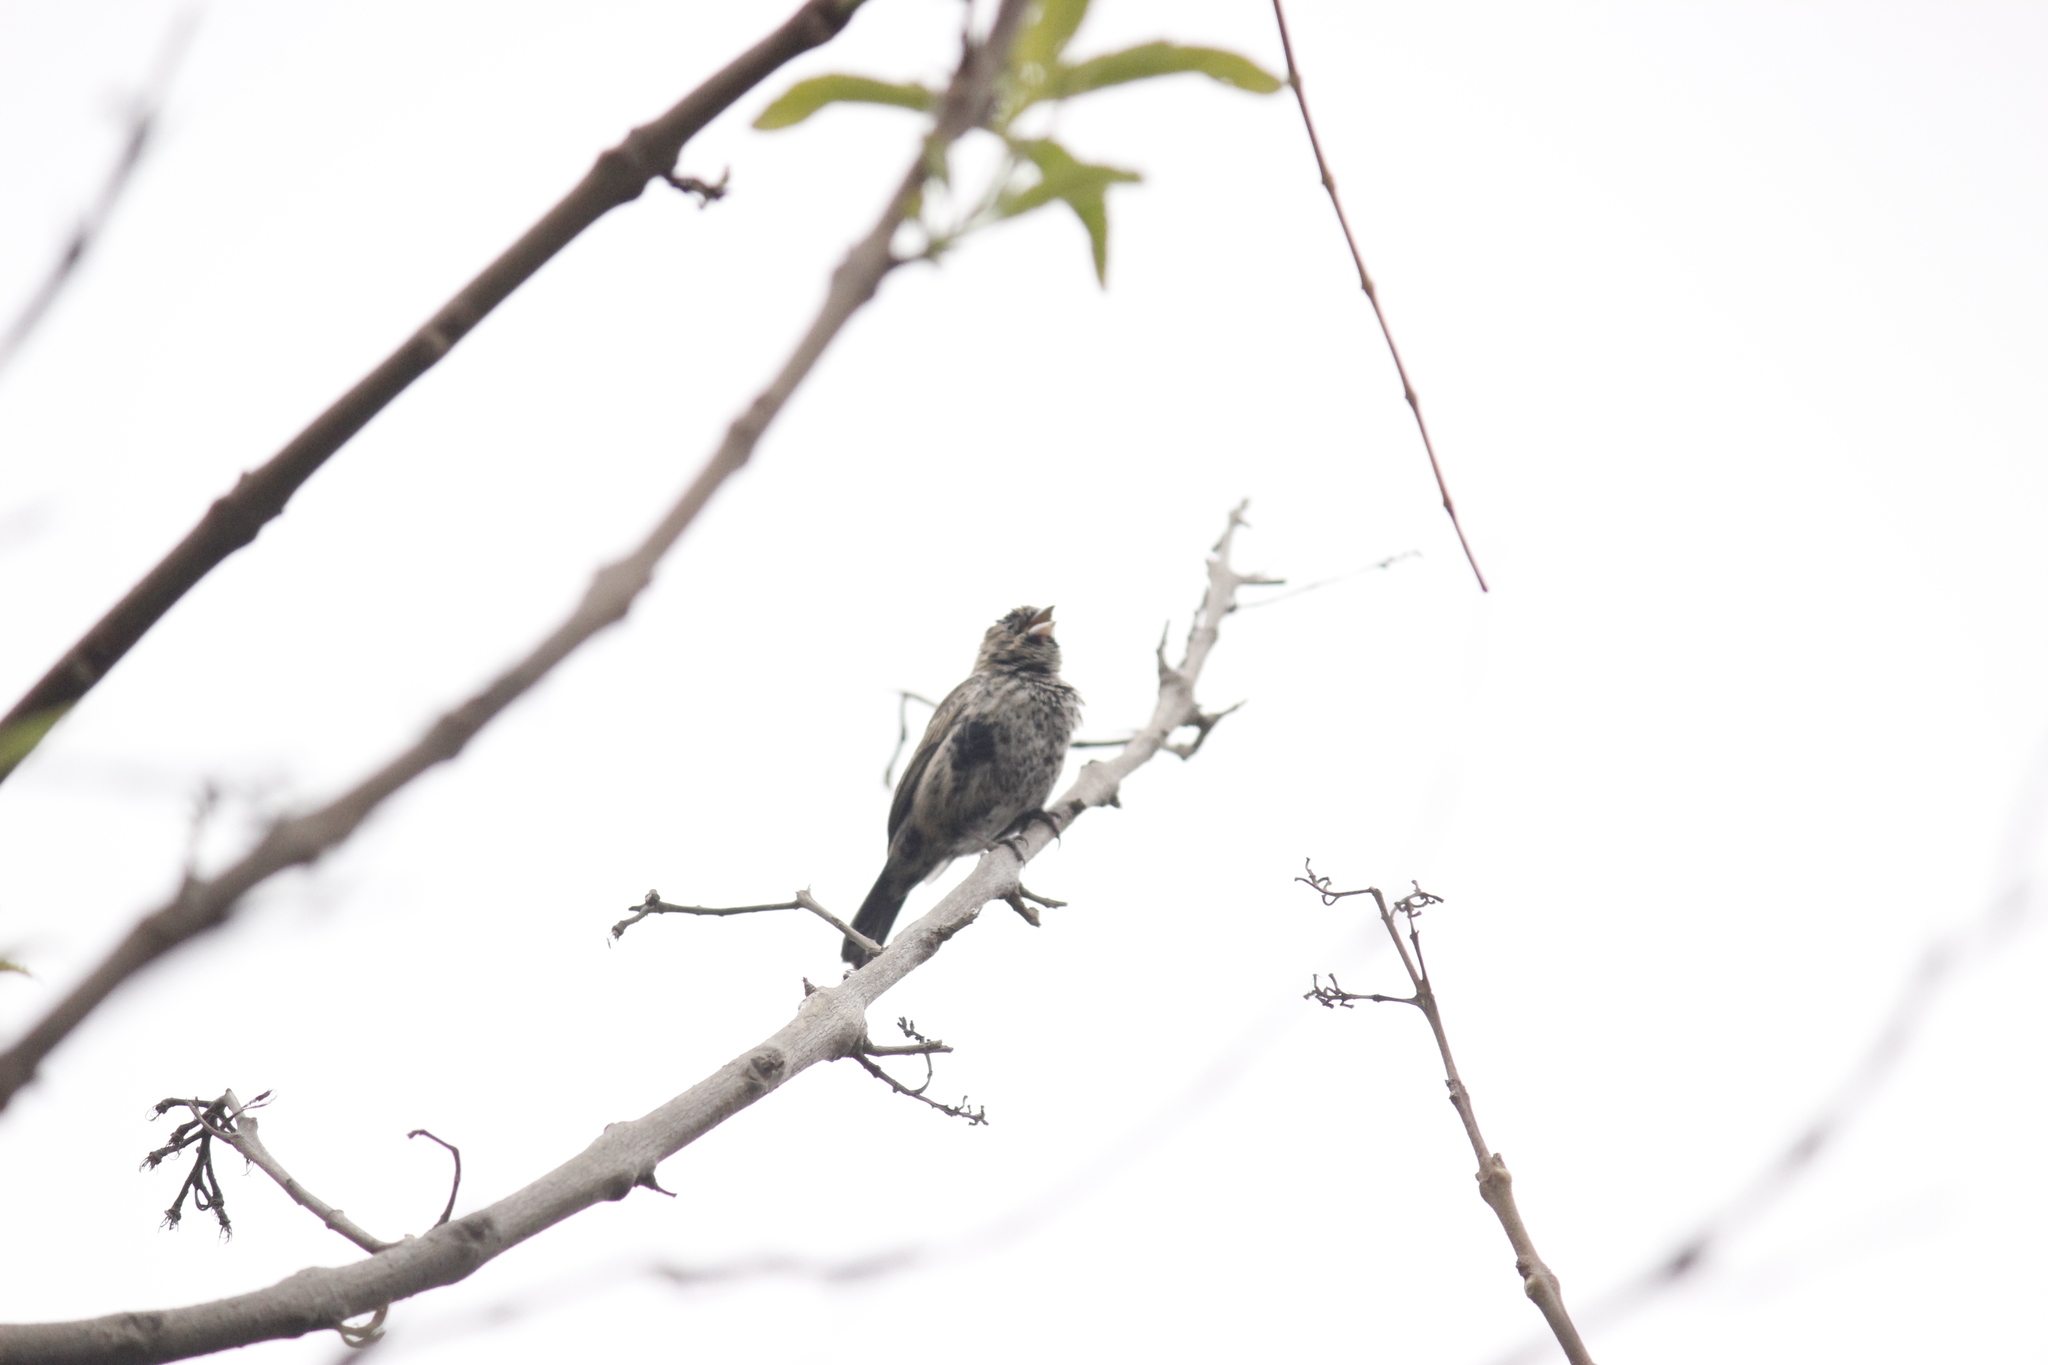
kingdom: Animalia
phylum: Chordata
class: Aves
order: Passeriformes
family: Thraupidae
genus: Volatinia
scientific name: Volatinia jacarina
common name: Blue-black grassquit
